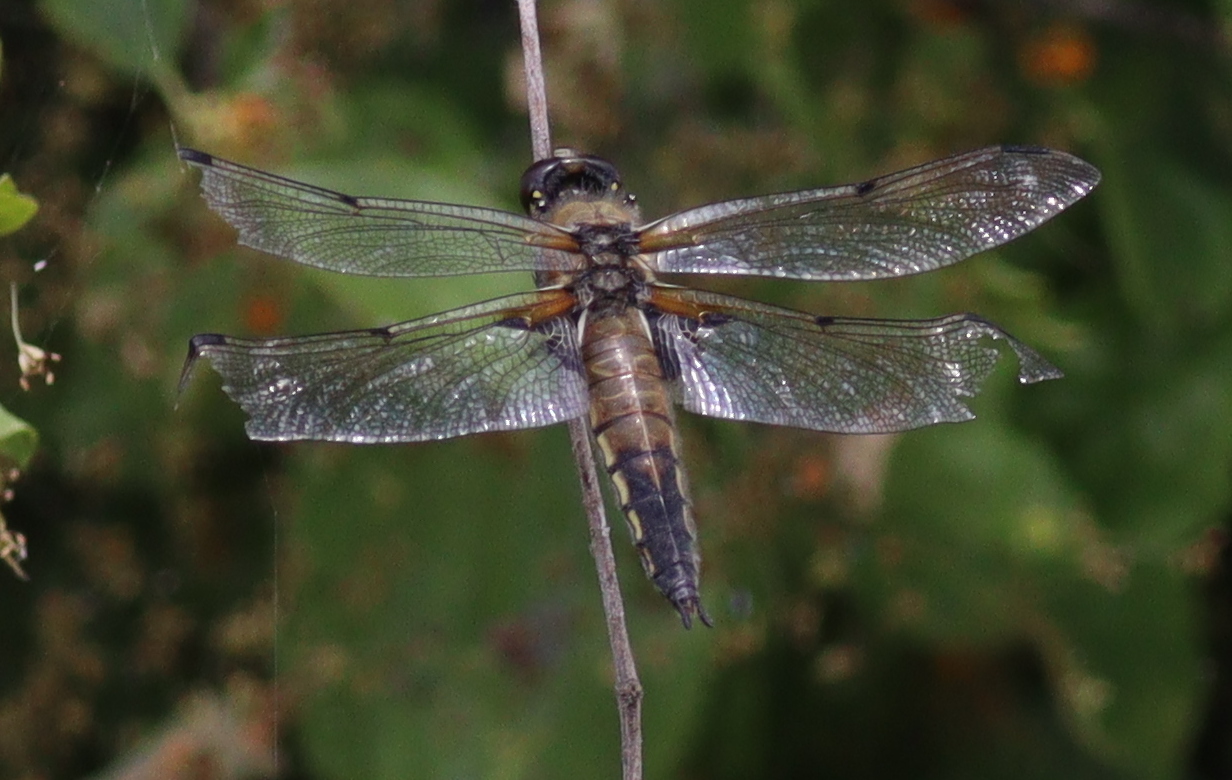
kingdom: Animalia
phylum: Arthropoda
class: Insecta
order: Odonata
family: Libellulidae
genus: Libellula
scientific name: Libellula quadrimaculata
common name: Four-spotted chaser
